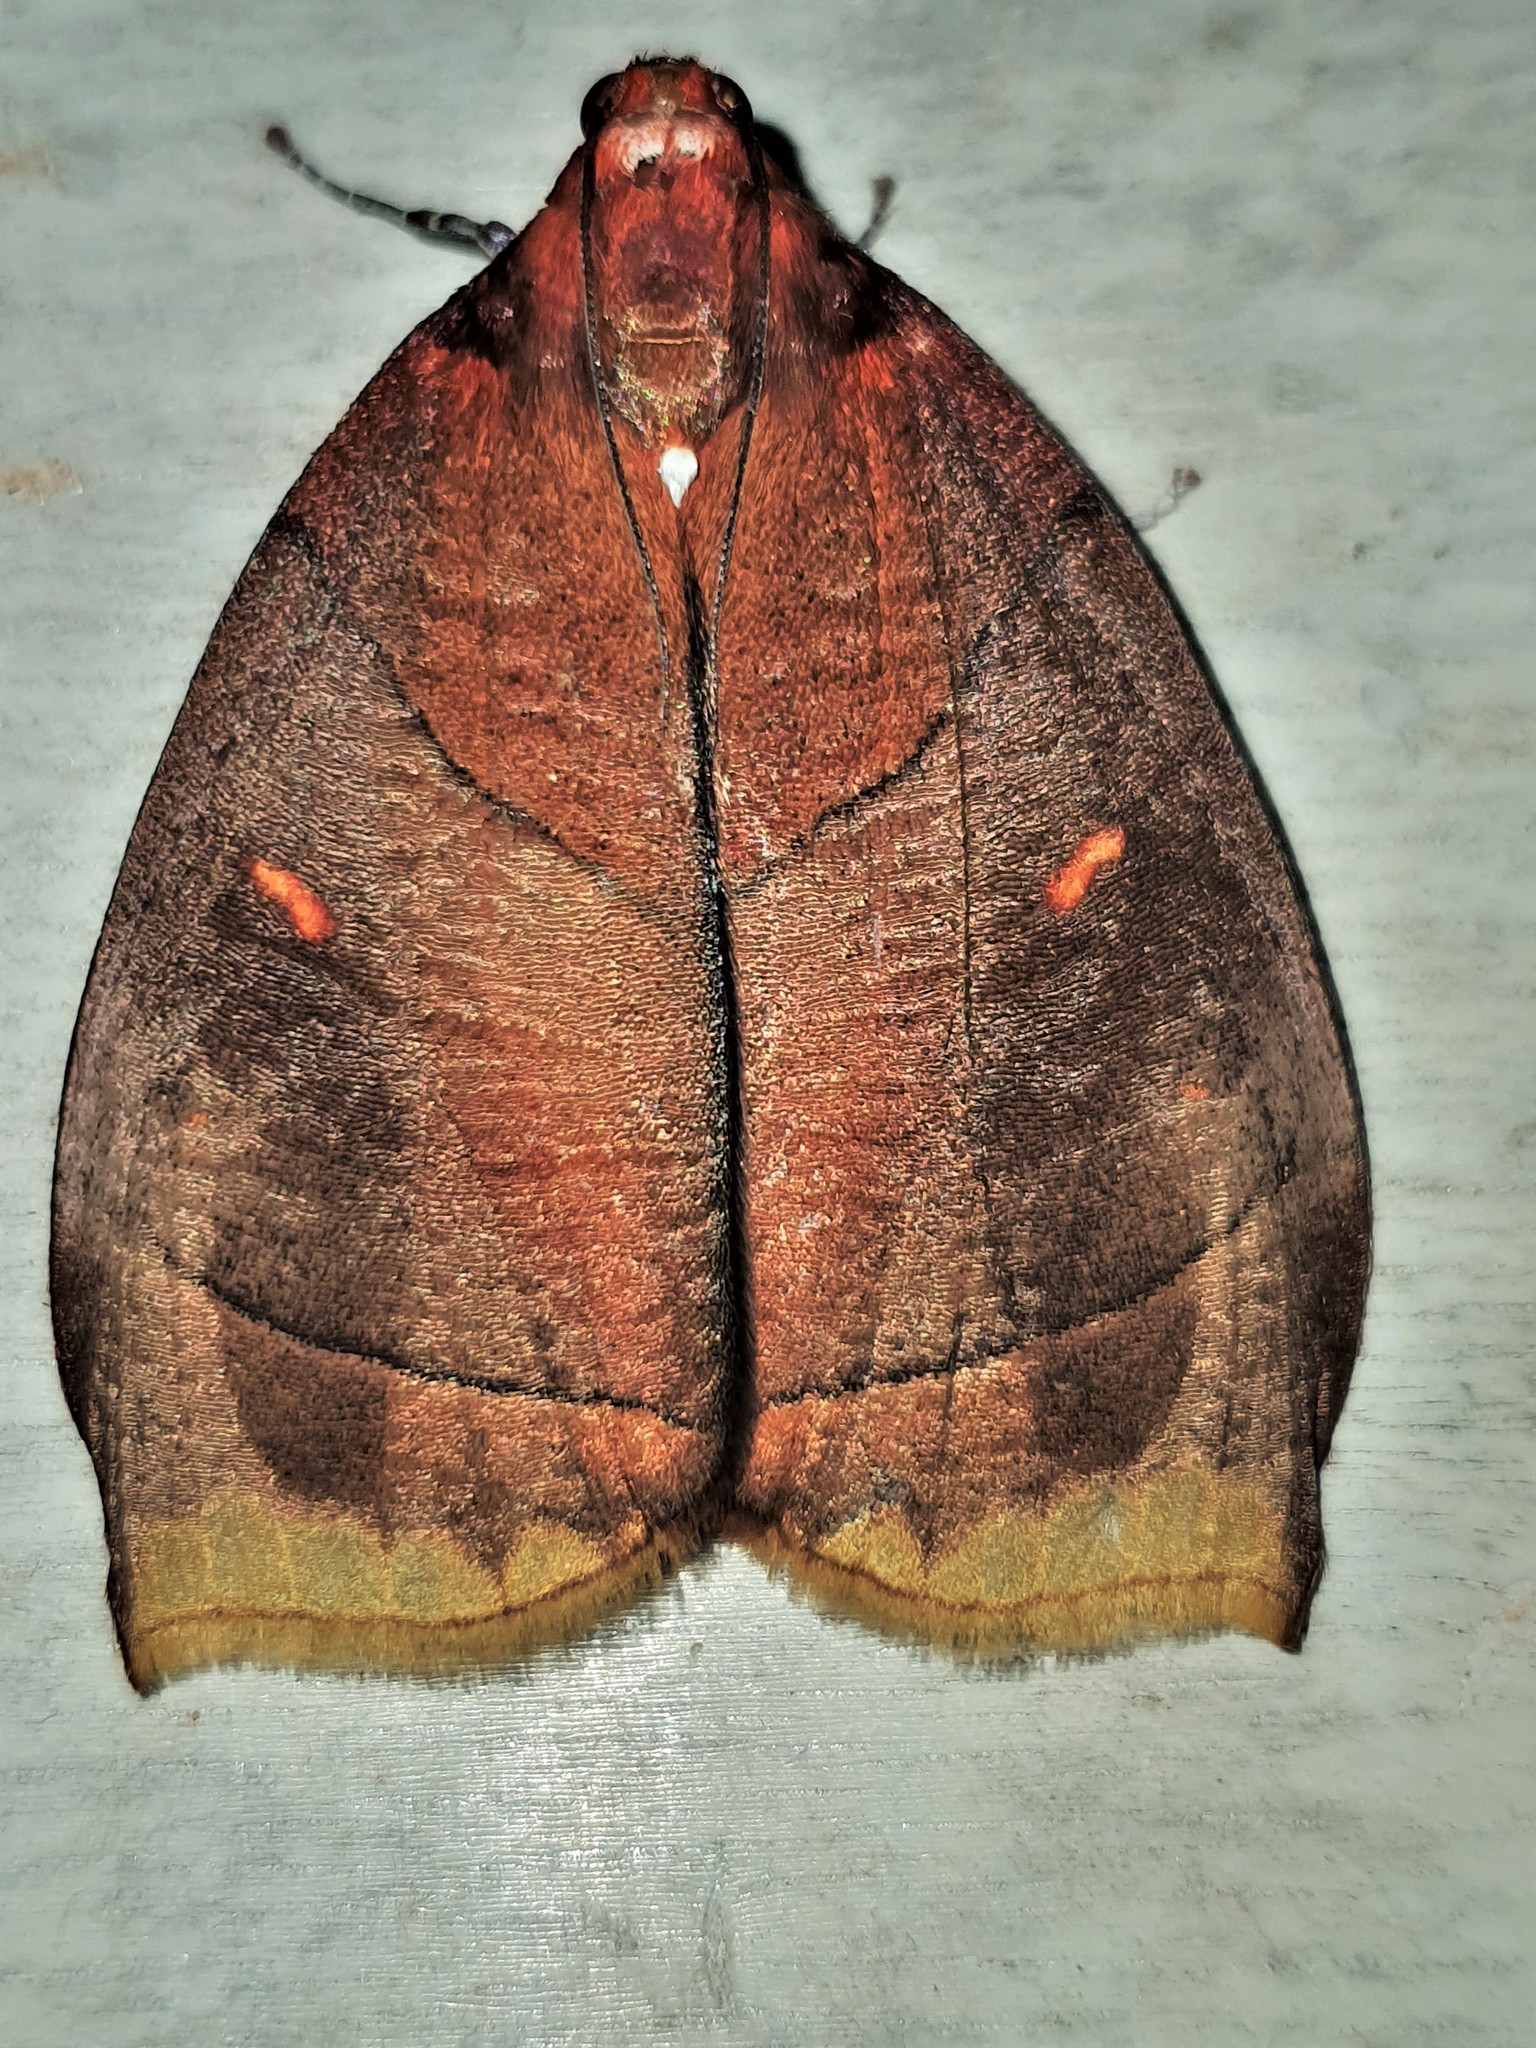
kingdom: Animalia
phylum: Arthropoda
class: Insecta
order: Lepidoptera
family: Pyralidae
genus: Neophrida
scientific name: Neophrida porphyrea
